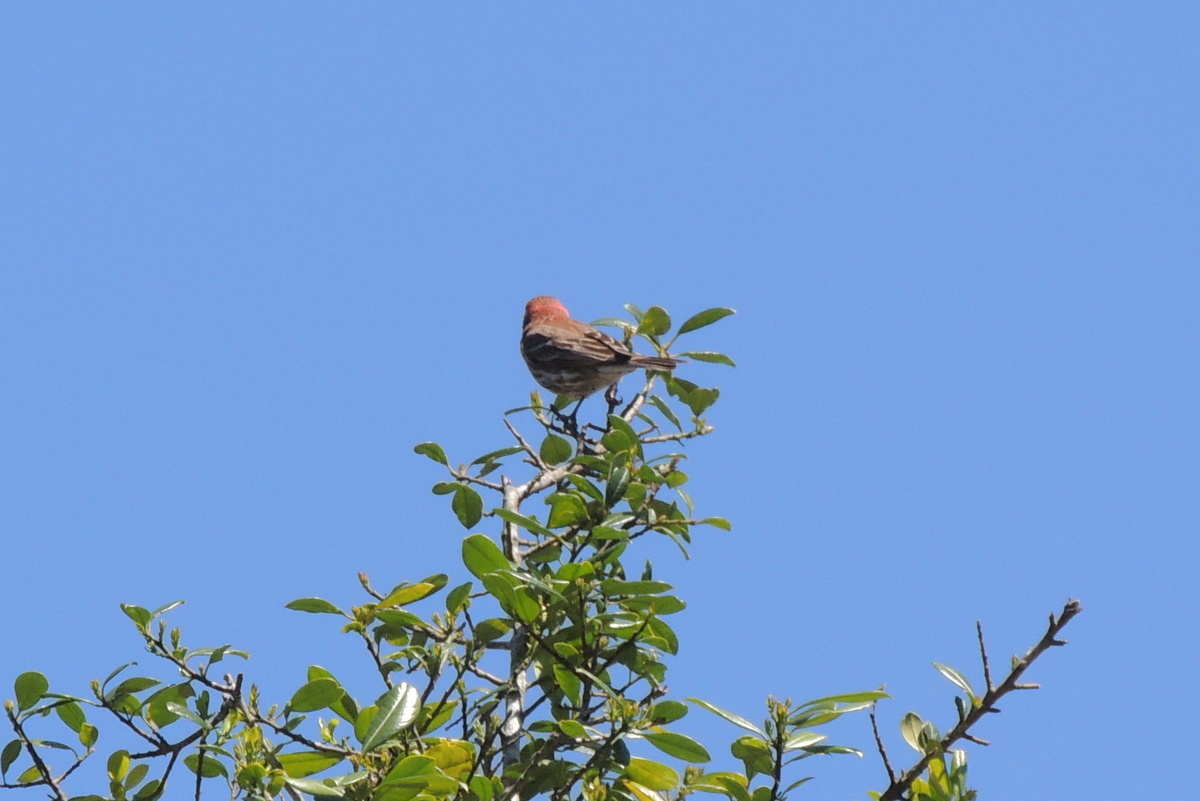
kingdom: Animalia
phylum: Chordata
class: Aves
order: Passeriformes
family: Fringillidae
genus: Haemorhous
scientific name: Haemorhous mexicanus
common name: House finch
